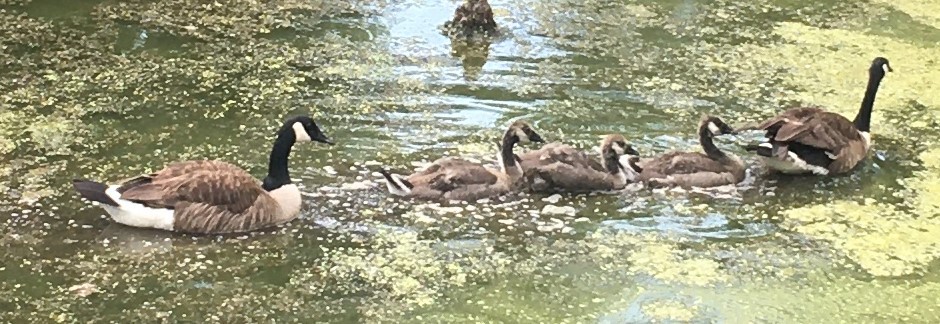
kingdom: Animalia
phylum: Chordata
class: Aves
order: Anseriformes
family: Anatidae
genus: Branta
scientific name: Branta canadensis
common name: Canada goose
